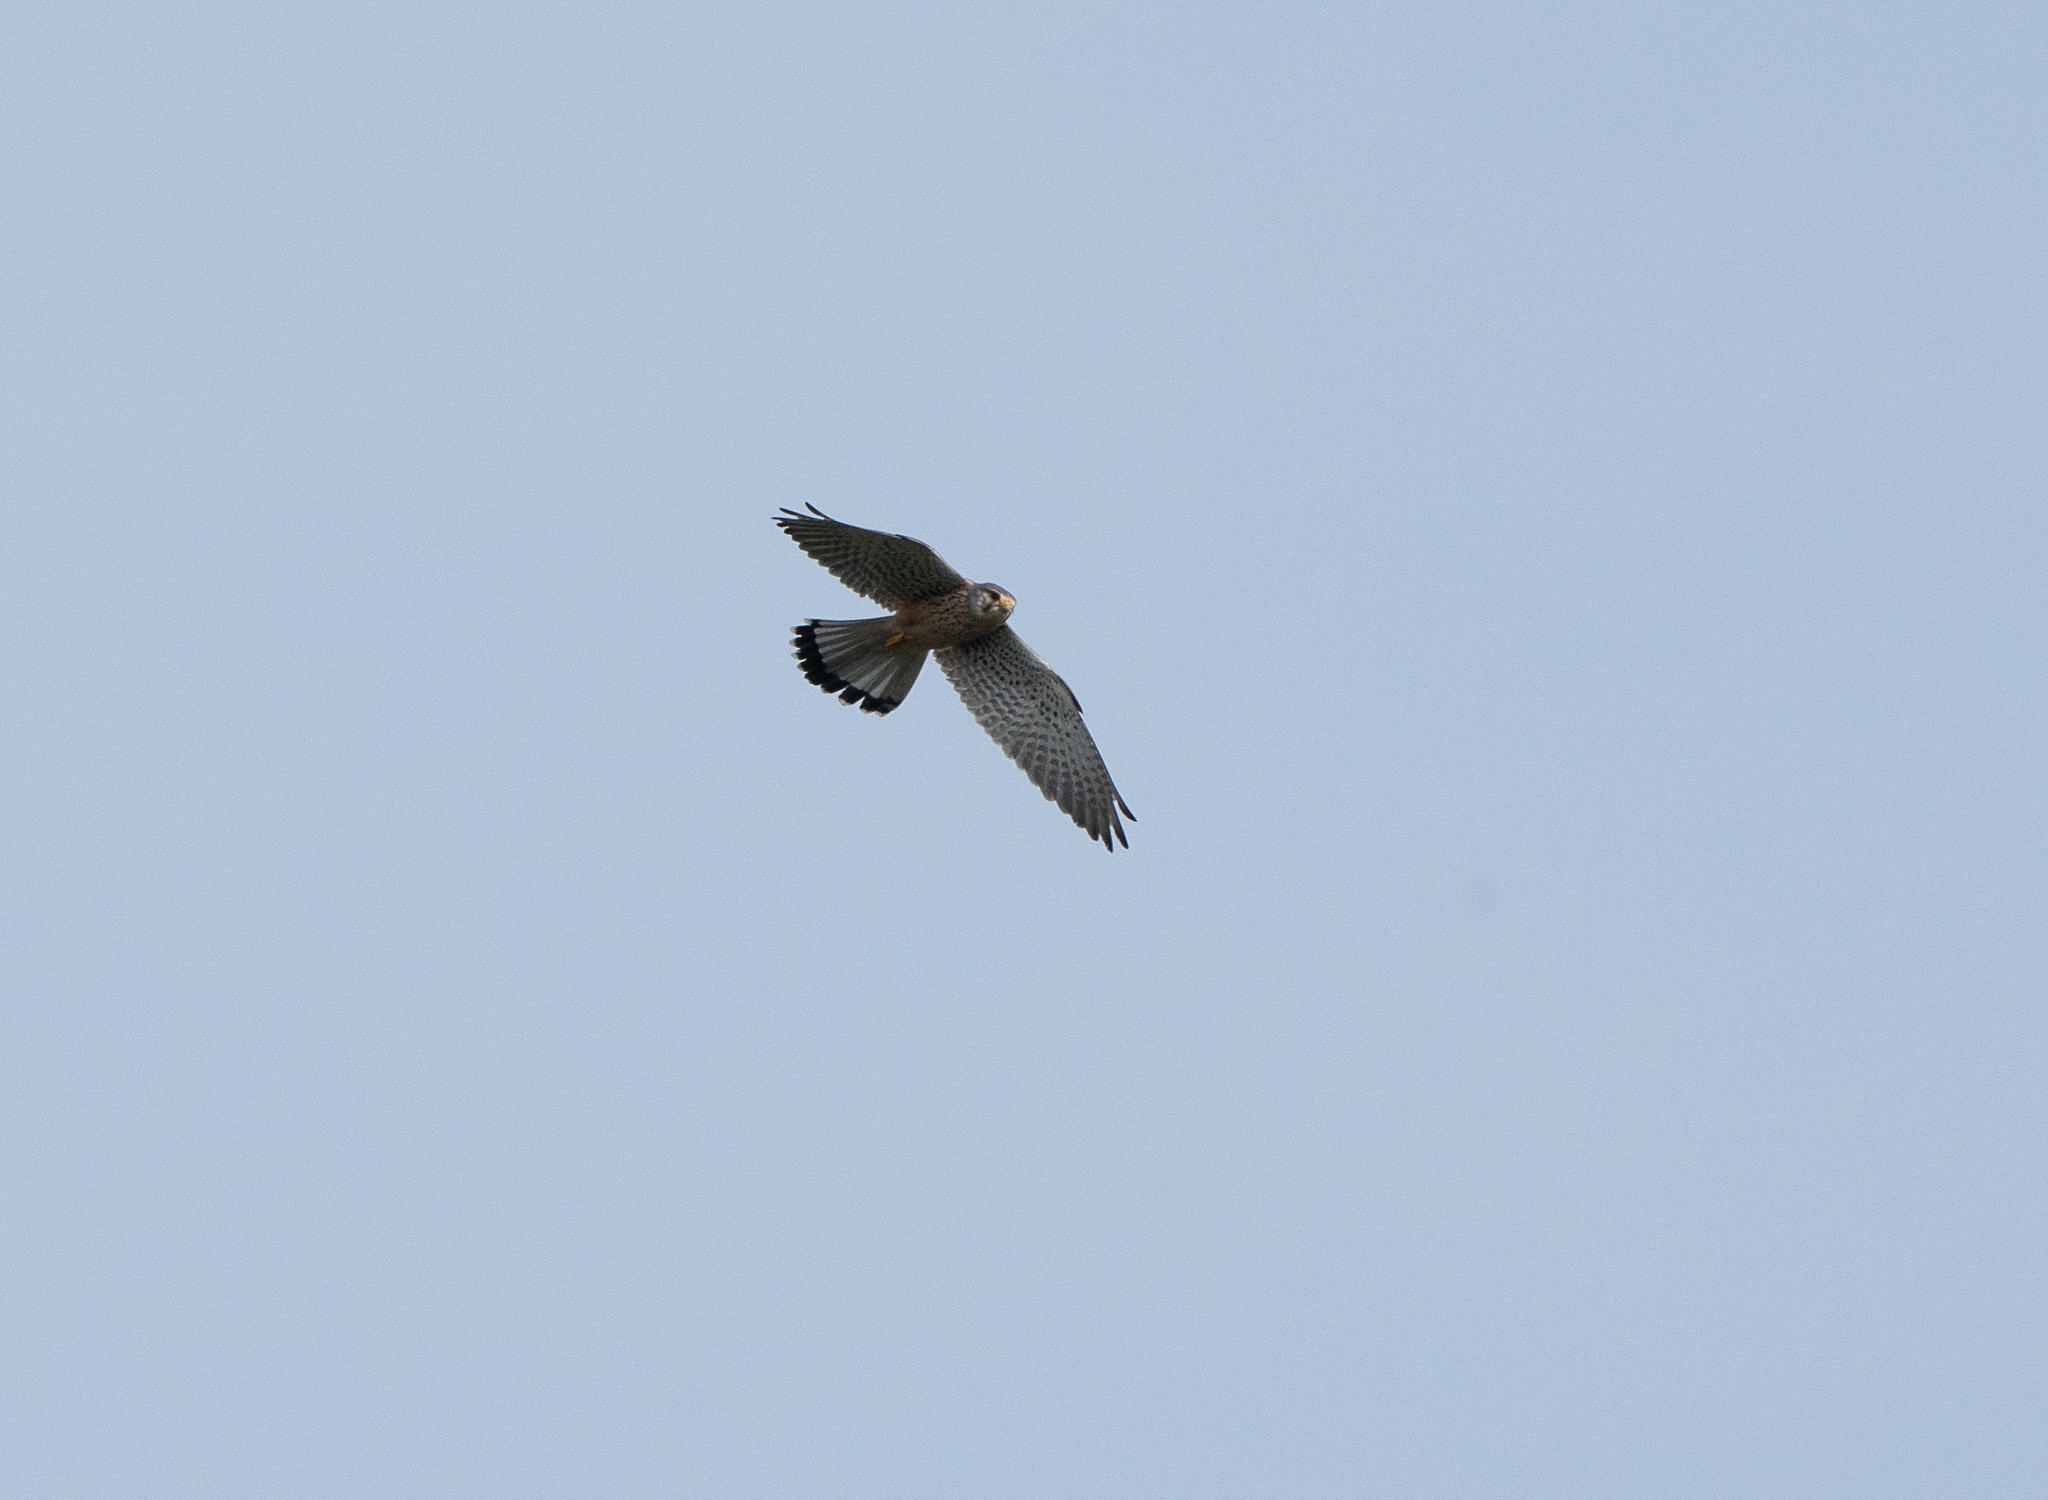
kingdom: Animalia
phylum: Chordata
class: Aves
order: Falconiformes
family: Falconidae
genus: Falco
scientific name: Falco tinnunculus
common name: Common kestrel
